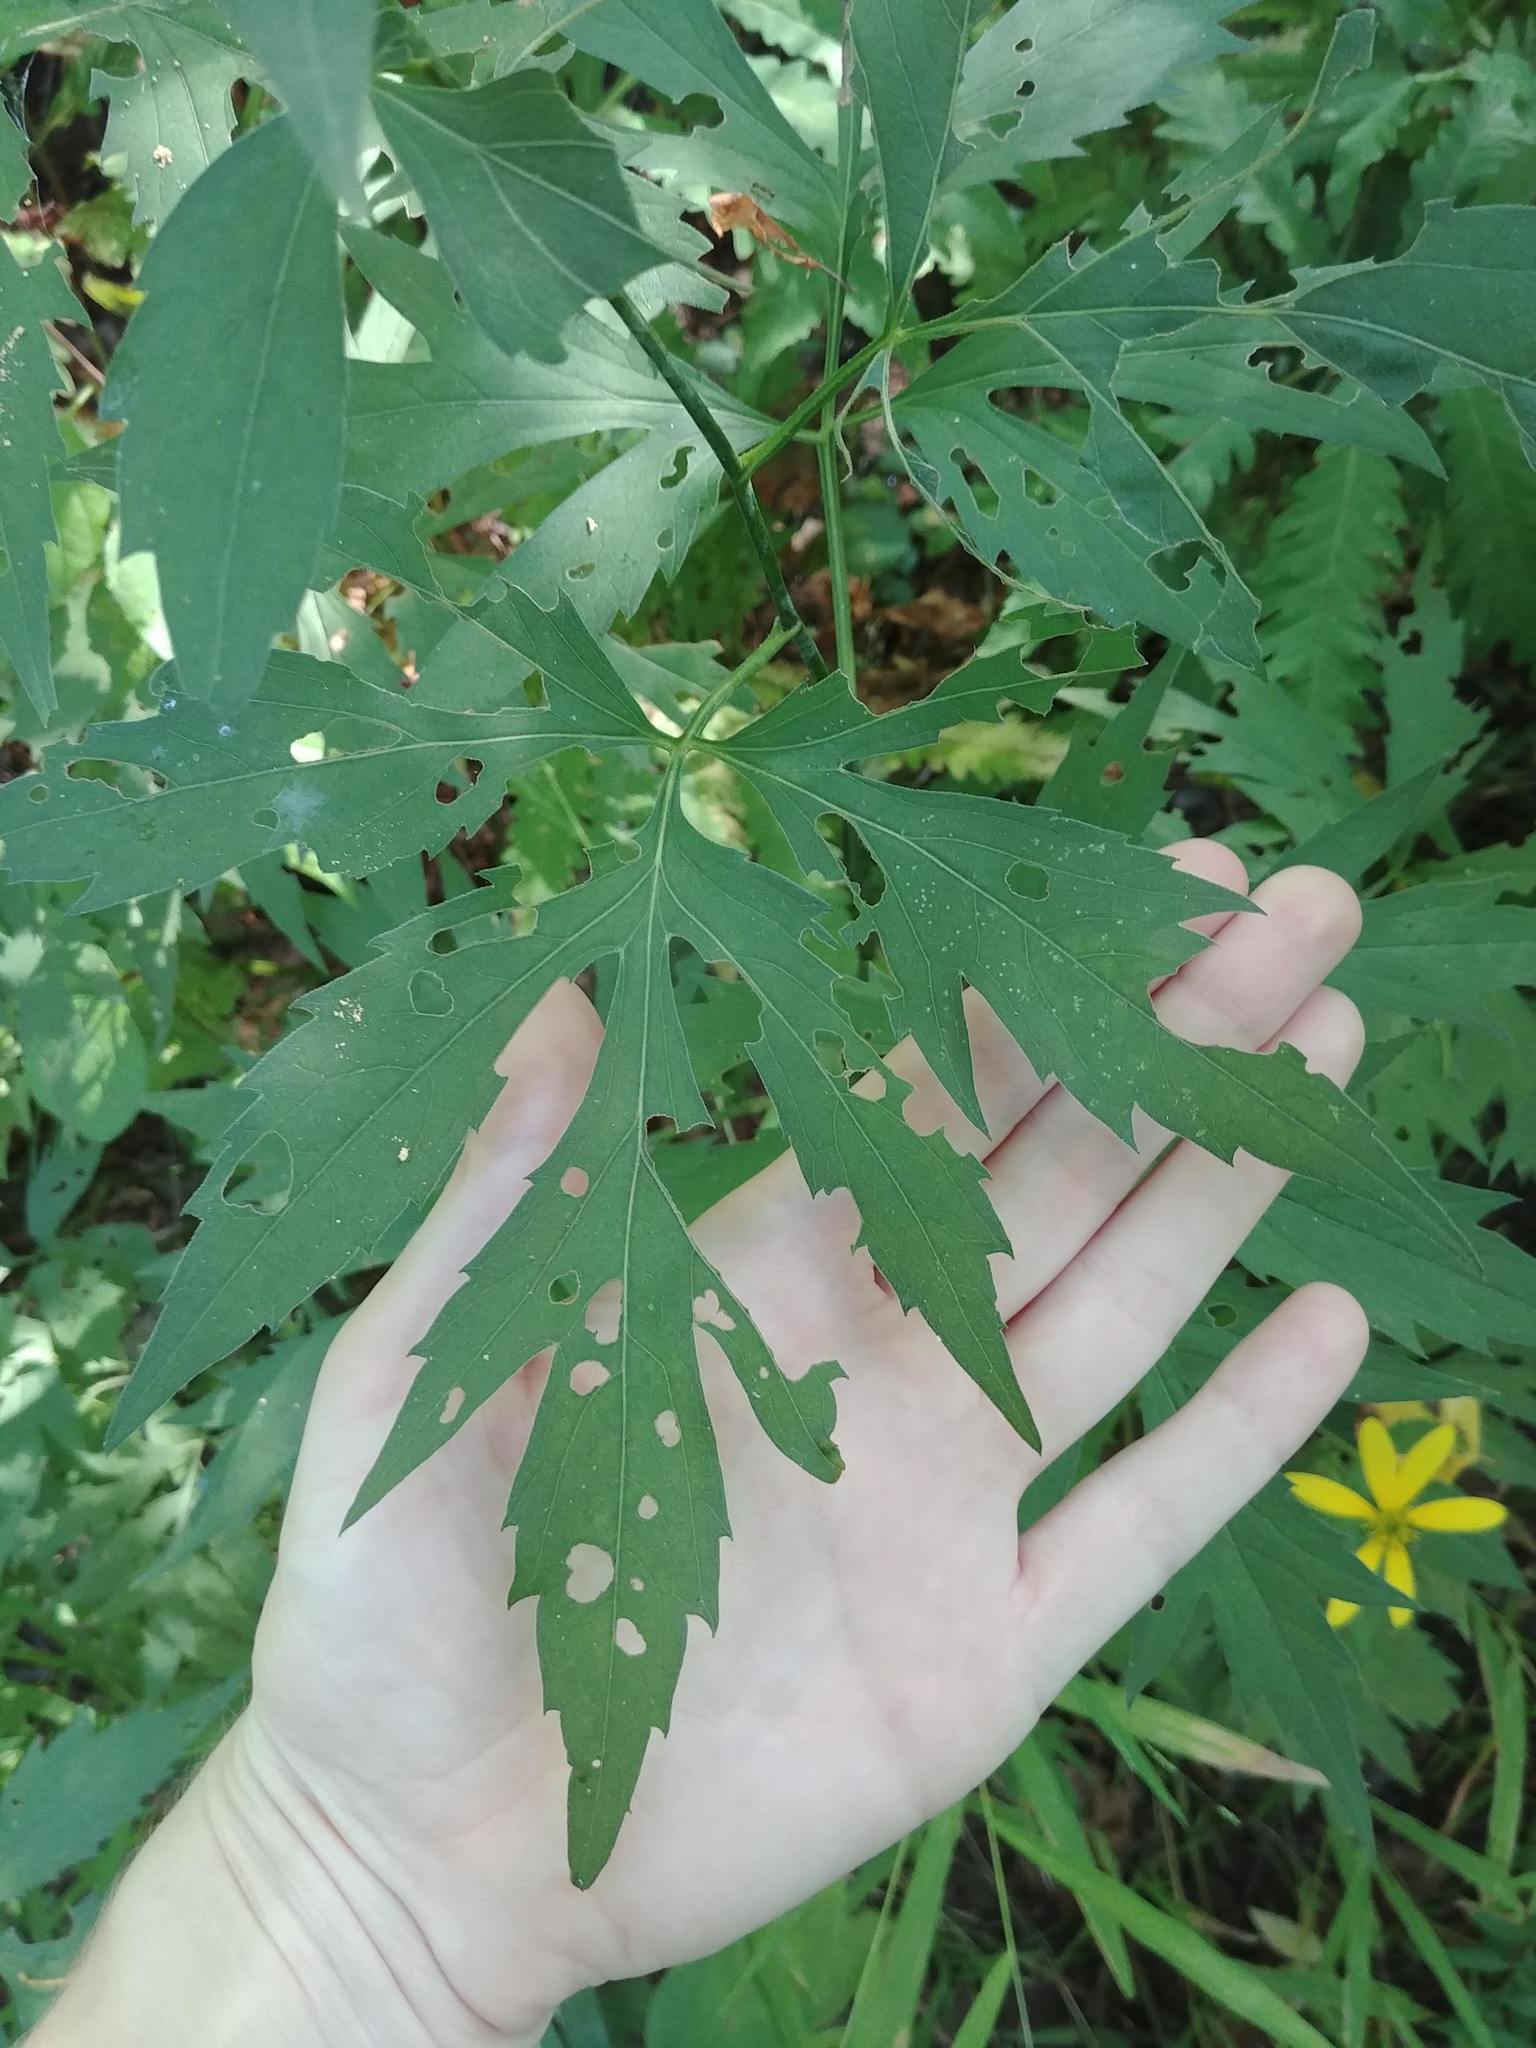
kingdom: Plantae
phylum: Tracheophyta
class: Magnoliopsida
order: Asterales
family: Asteraceae
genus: Rudbeckia
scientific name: Rudbeckia laciniata
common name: Coneflower
